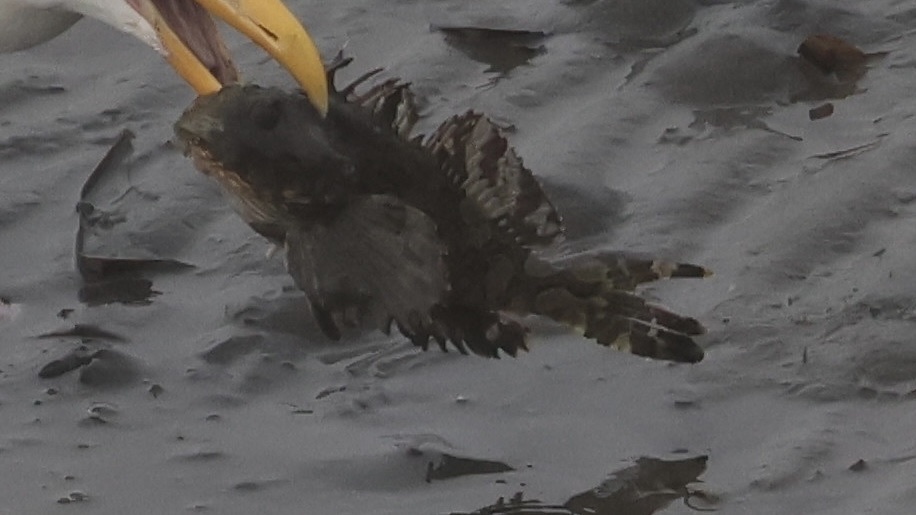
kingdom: Animalia
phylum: Chordata
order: Scorpaeniformes
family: Cottidae
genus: Scorpaenichthys
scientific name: Scorpaenichthys marmoratus
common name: Cabezon
